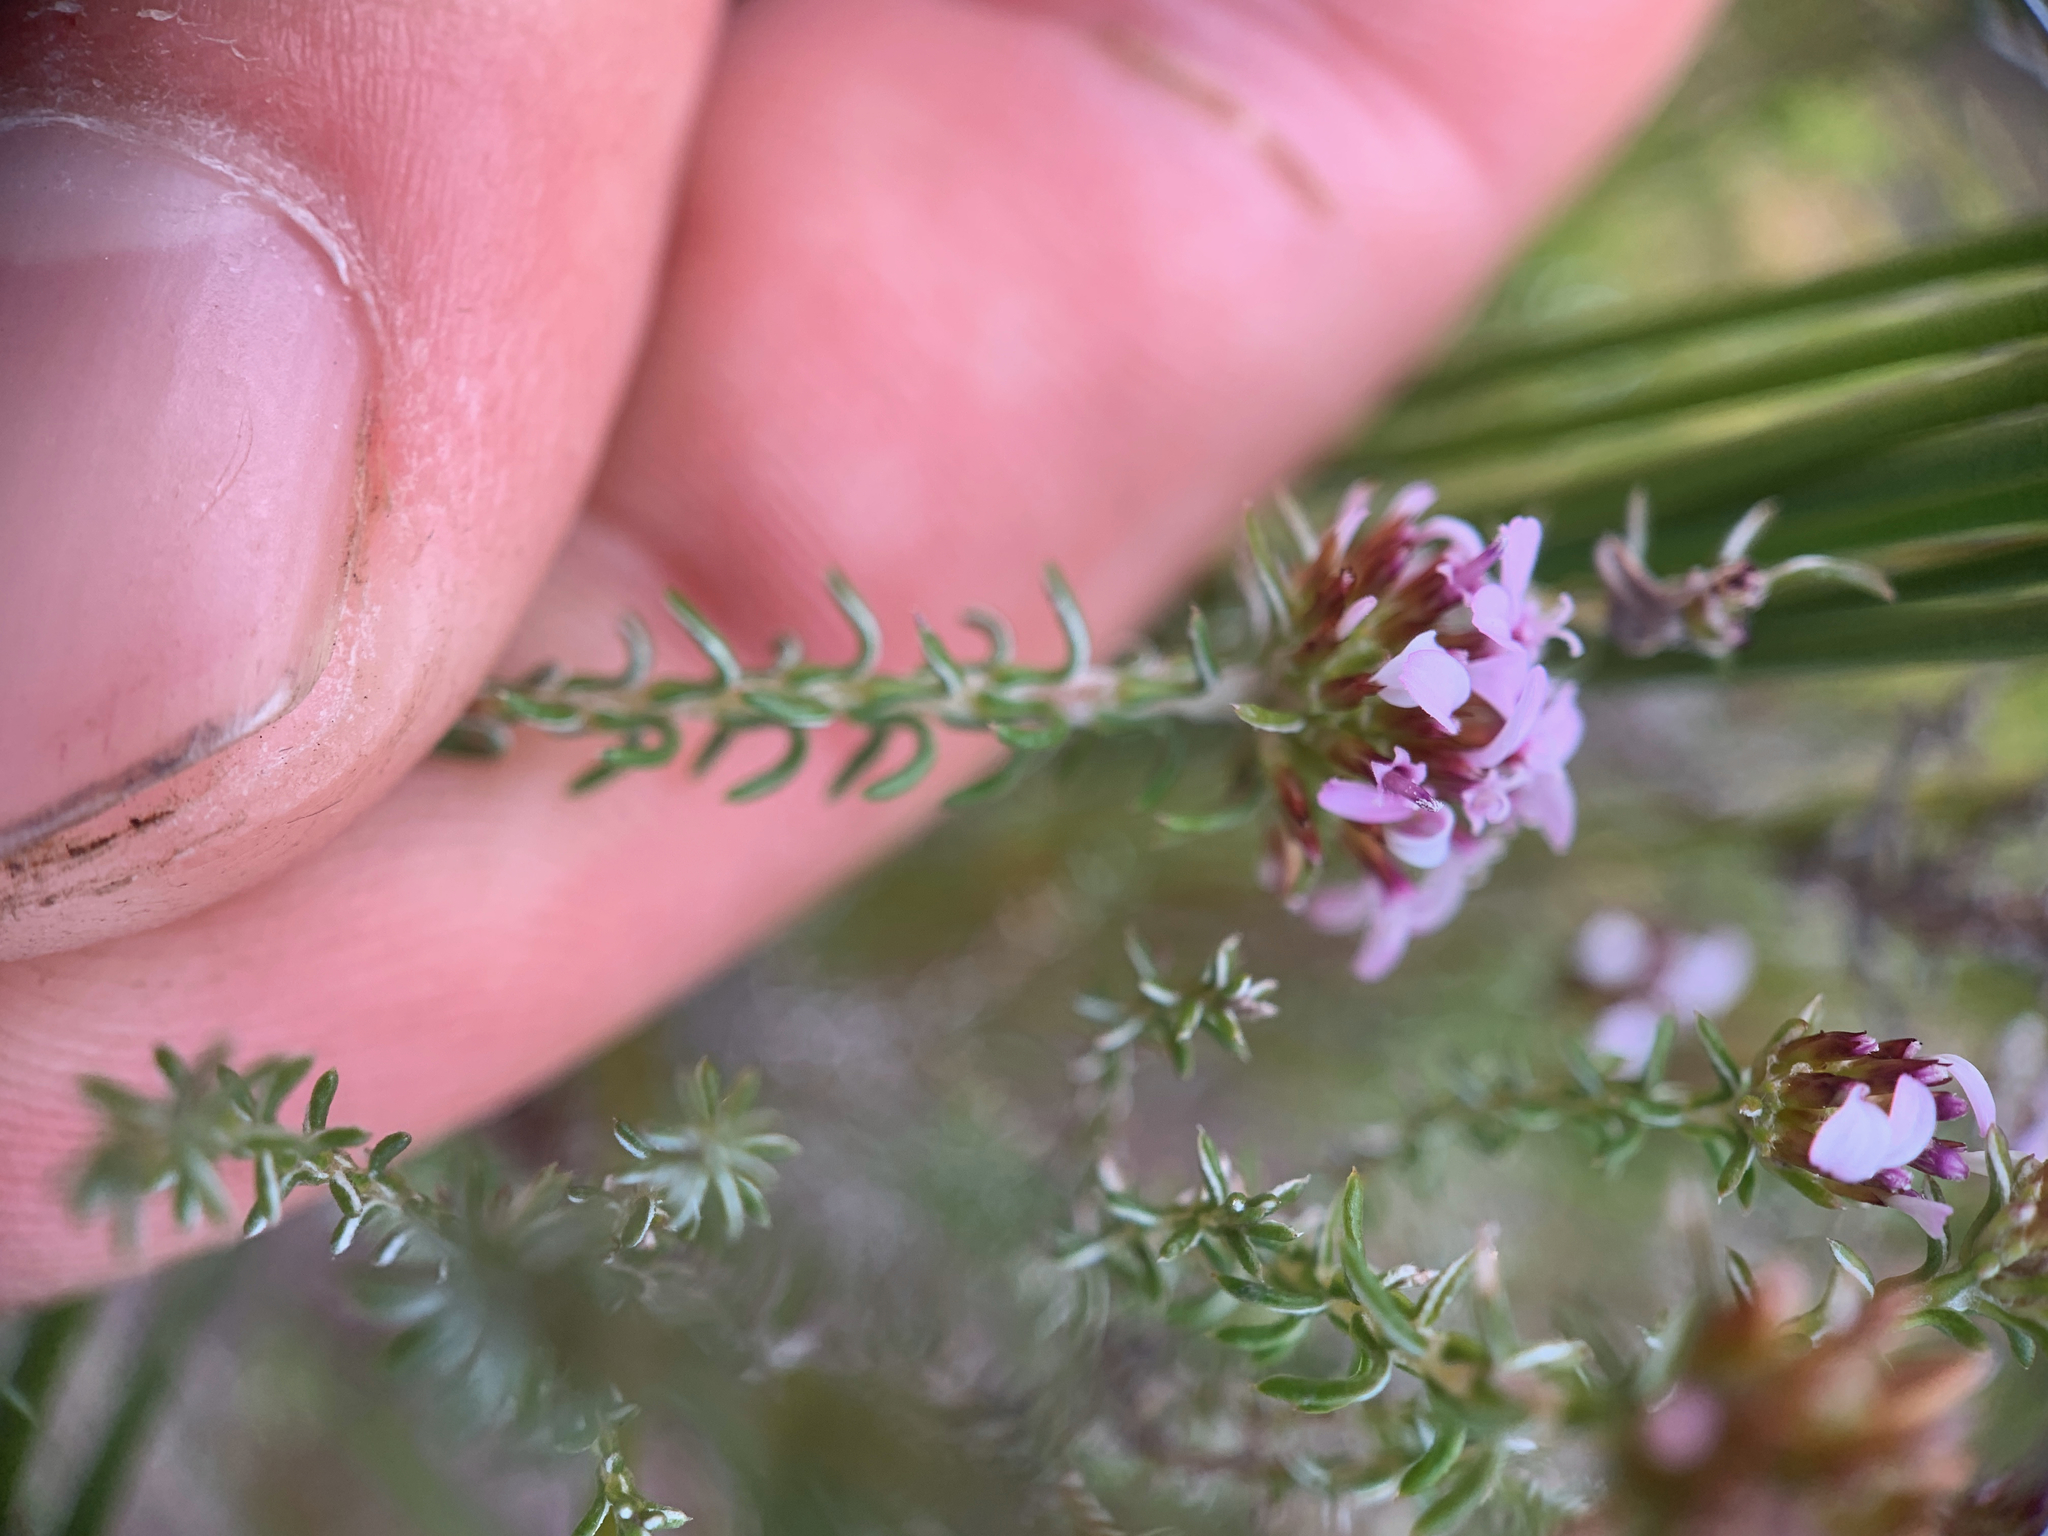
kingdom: Plantae
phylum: Tracheophyta
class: Magnoliopsida
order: Asterales
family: Asteraceae
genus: Disparago
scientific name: Disparago ericoides
